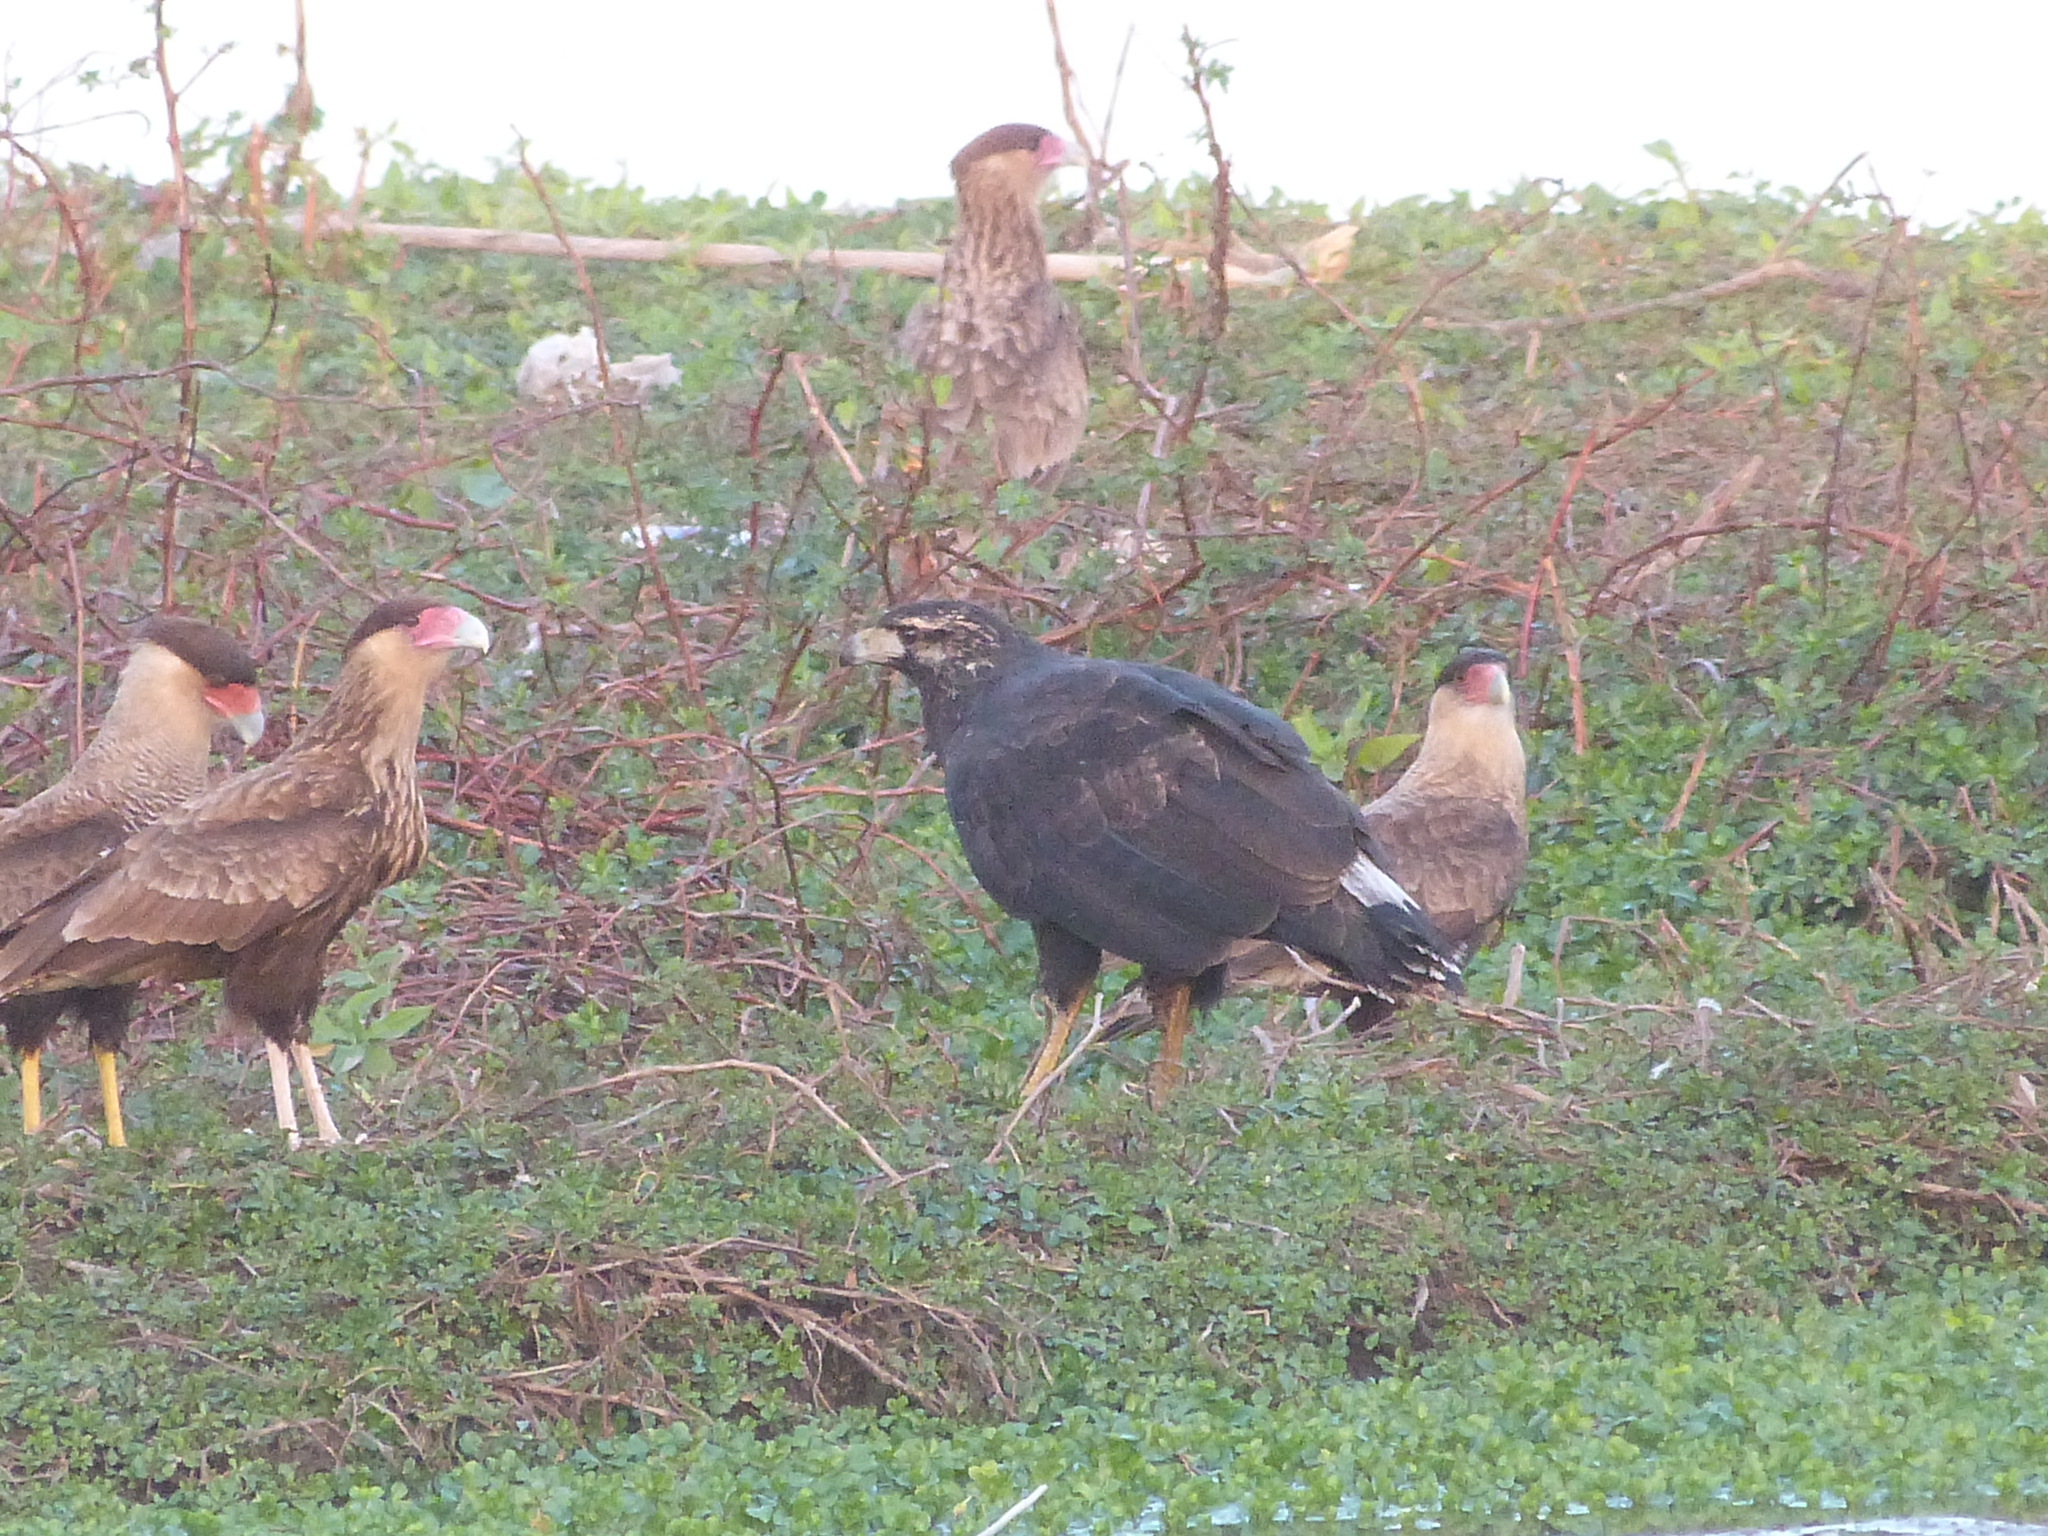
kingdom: Animalia
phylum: Chordata
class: Aves
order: Accipitriformes
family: Accipitridae
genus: Buteogallus
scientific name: Buteogallus urubitinga
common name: Great black hawk
